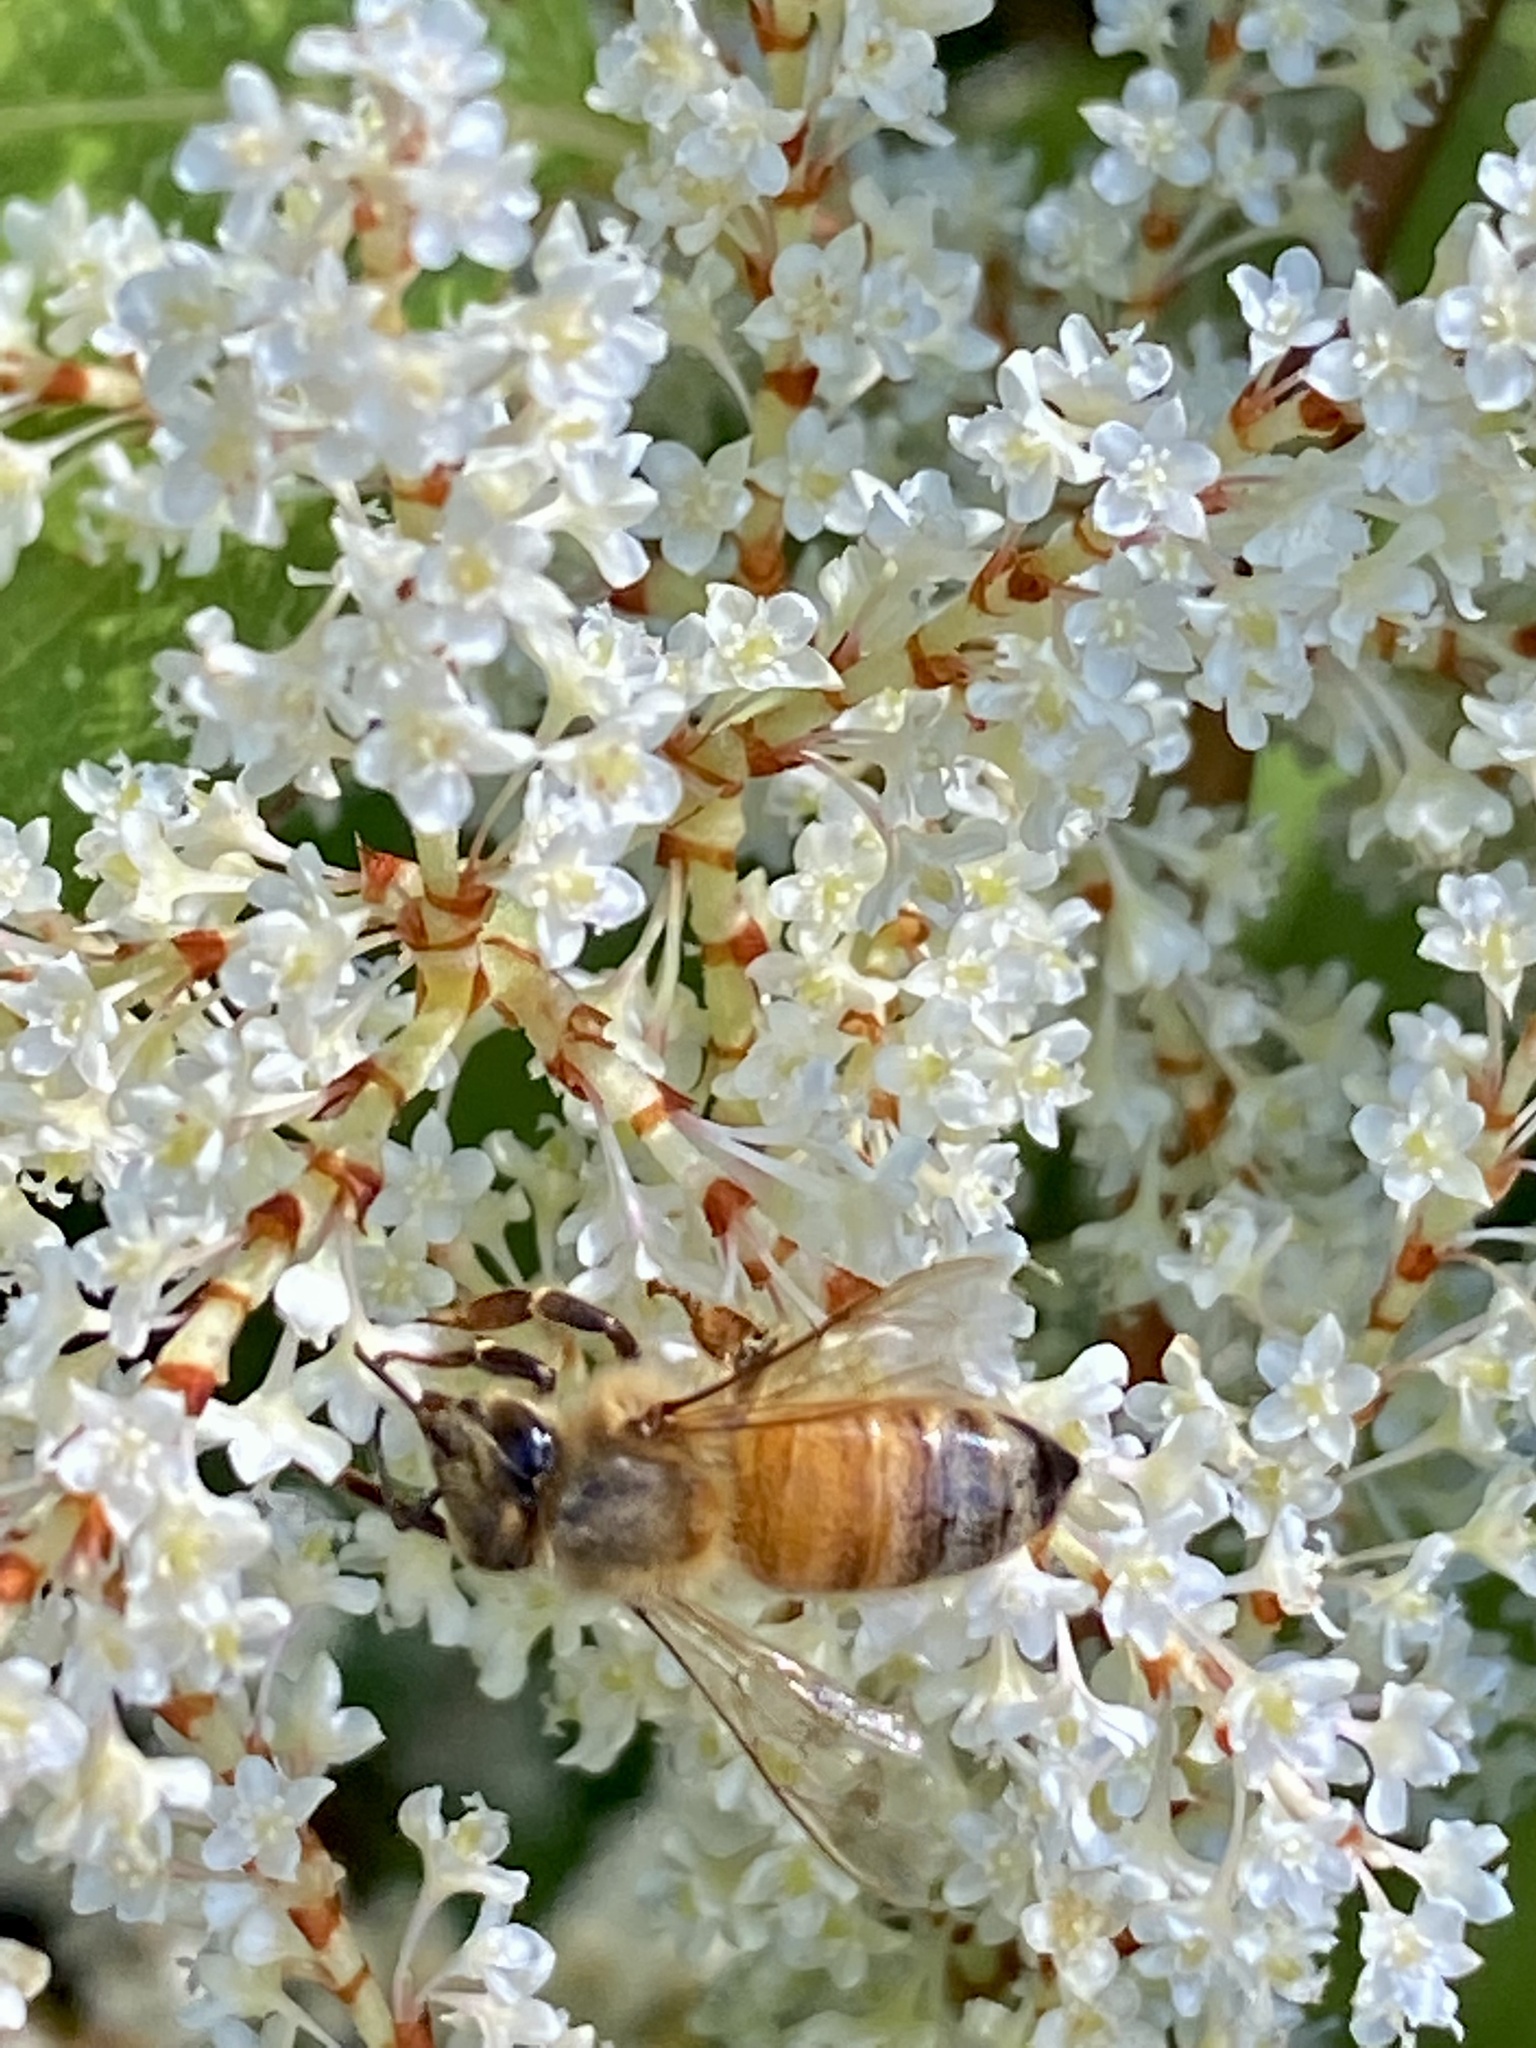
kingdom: Animalia
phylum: Arthropoda
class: Insecta
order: Hymenoptera
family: Apidae
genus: Apis
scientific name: Apis mellifera
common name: Honey bee
